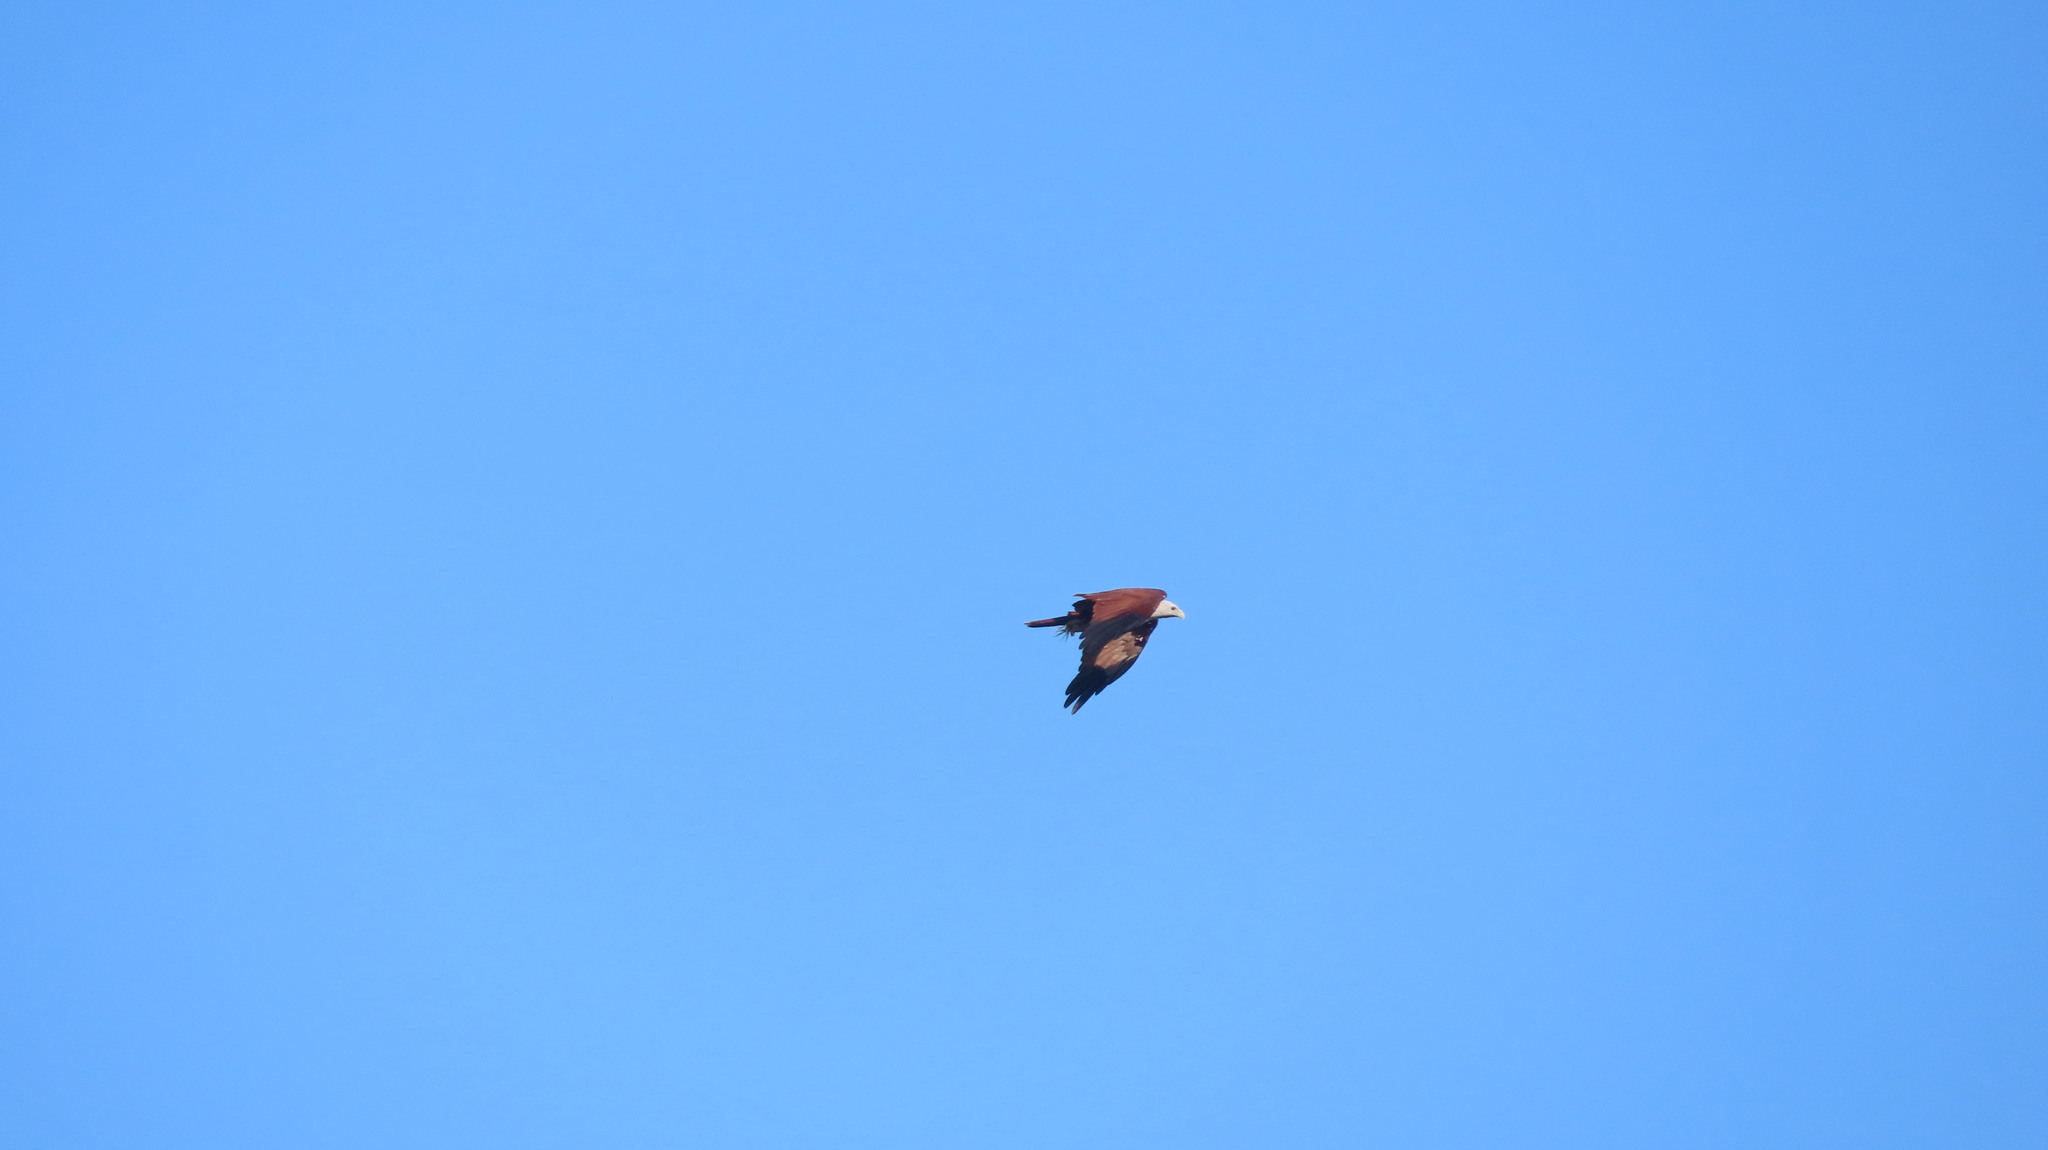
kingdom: Animalia
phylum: Chordata
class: Aves
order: Accipitriformes
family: Accipitridae
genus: Haliastur
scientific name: Haliastur indus
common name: Brahminy kite
